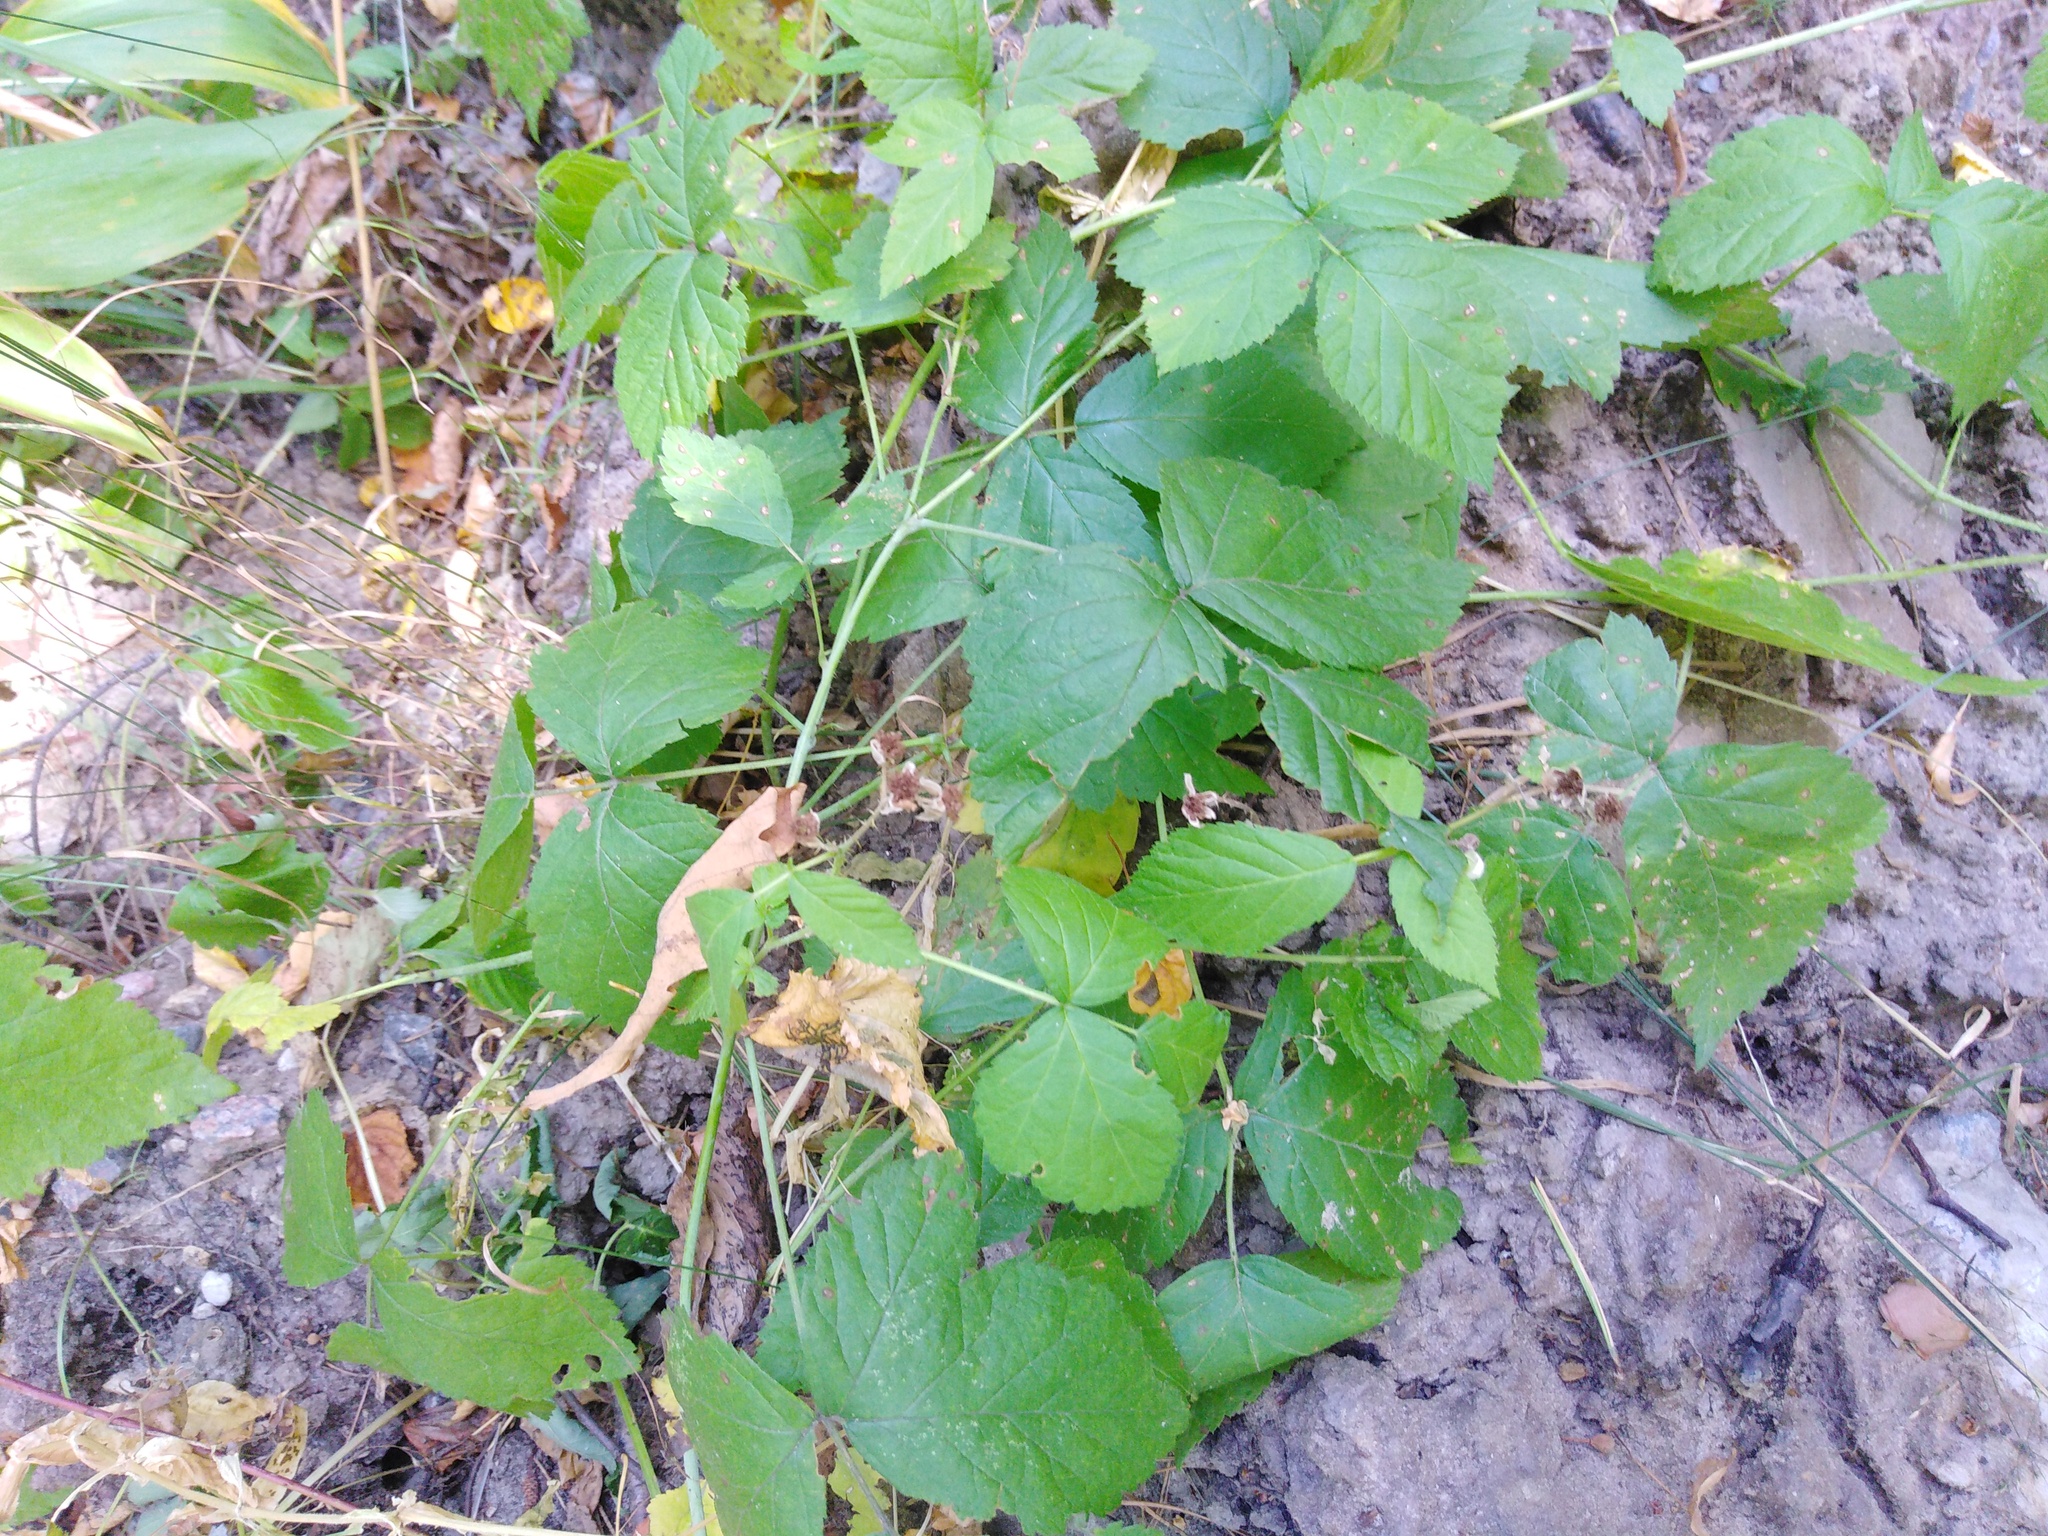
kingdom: Plantae
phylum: Tracheophyta
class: Magnoliopsida
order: Rosales
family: Rosaceae
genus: Rubus
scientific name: Rubus caesius
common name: Dewberry
